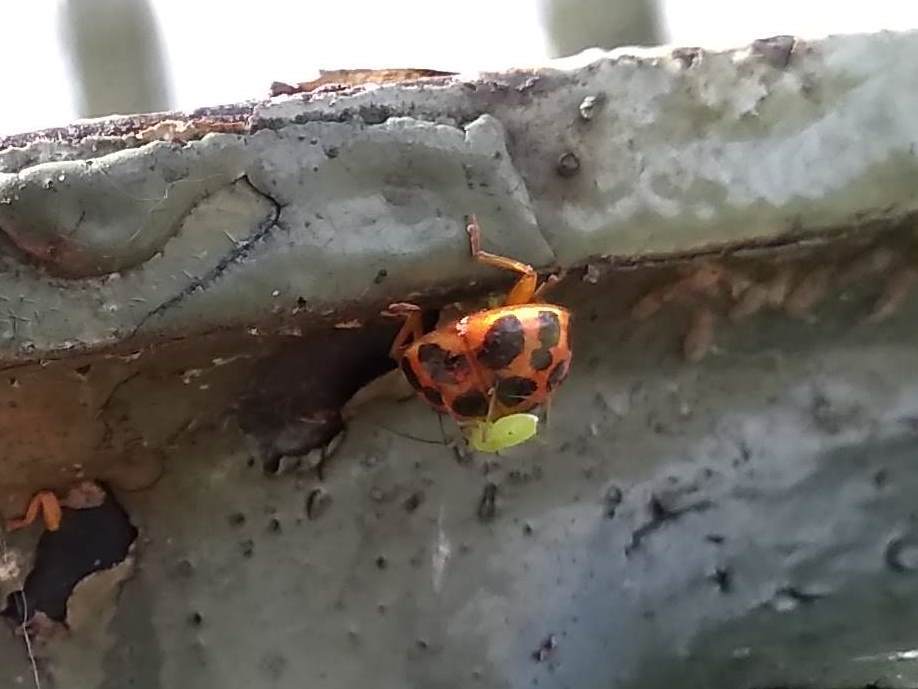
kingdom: Animalia
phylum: Arthropoda
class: Insecta
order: Coleoptera
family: Coccinellidae
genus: Harmonia
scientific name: Harmonia axyridis
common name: Harlequin ladybird
